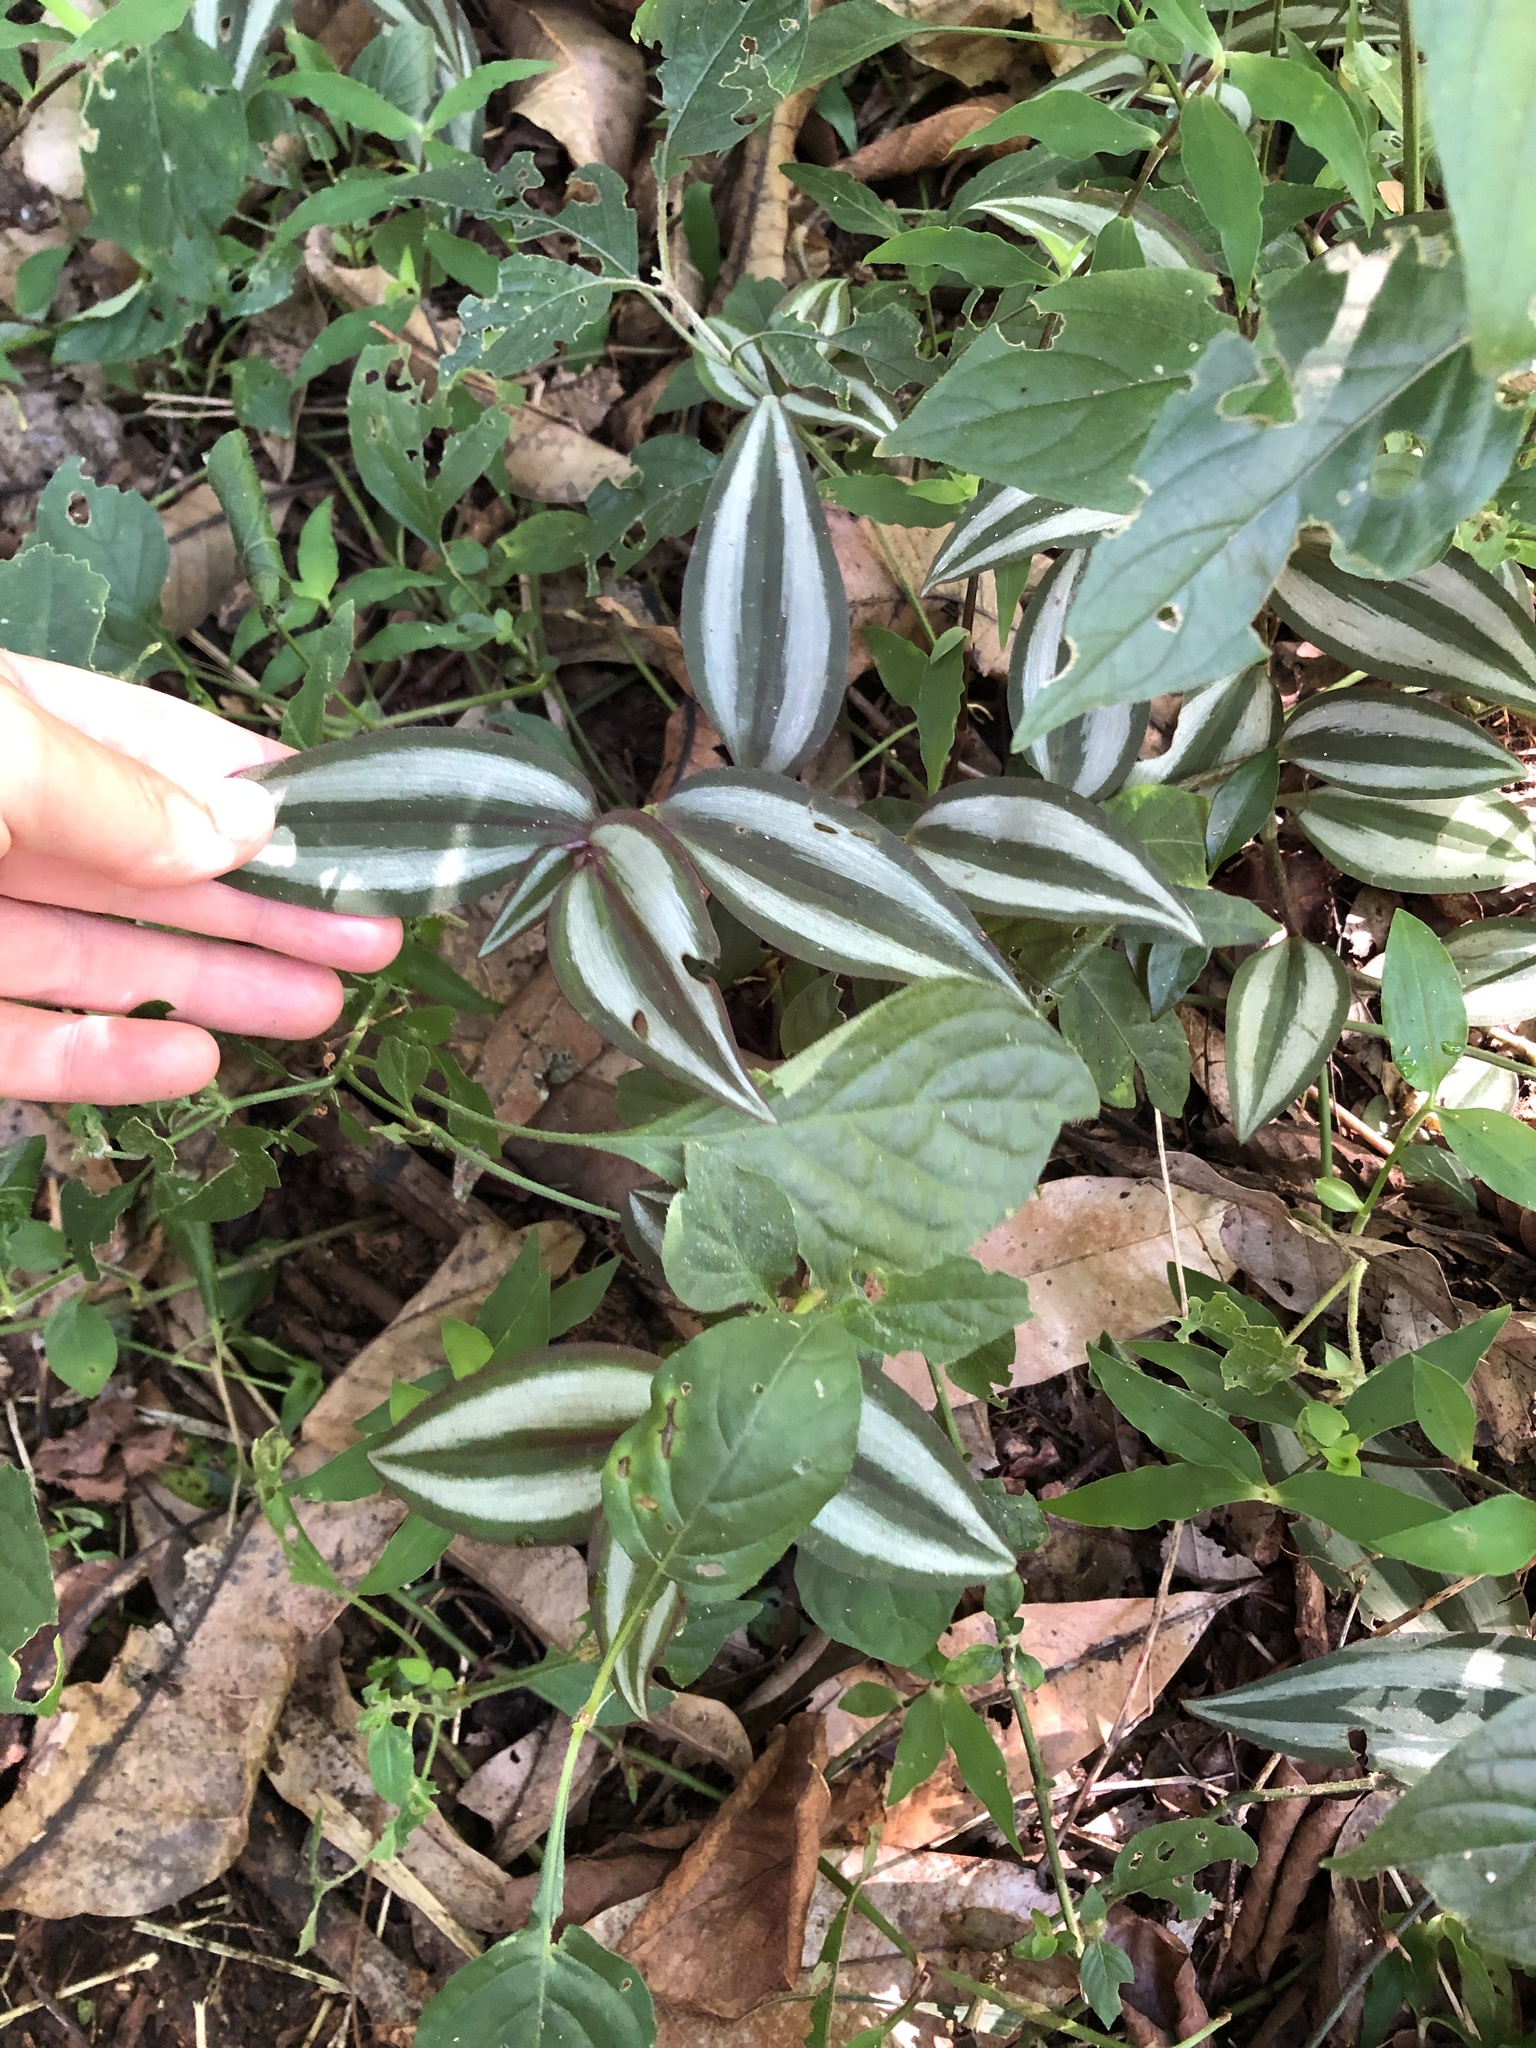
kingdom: Plantae
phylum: Tracheophyta
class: Liliopsida
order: Commelinales
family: Commelinaceae
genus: Tradescantia
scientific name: Tradescantia zebrina
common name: Inchplant
